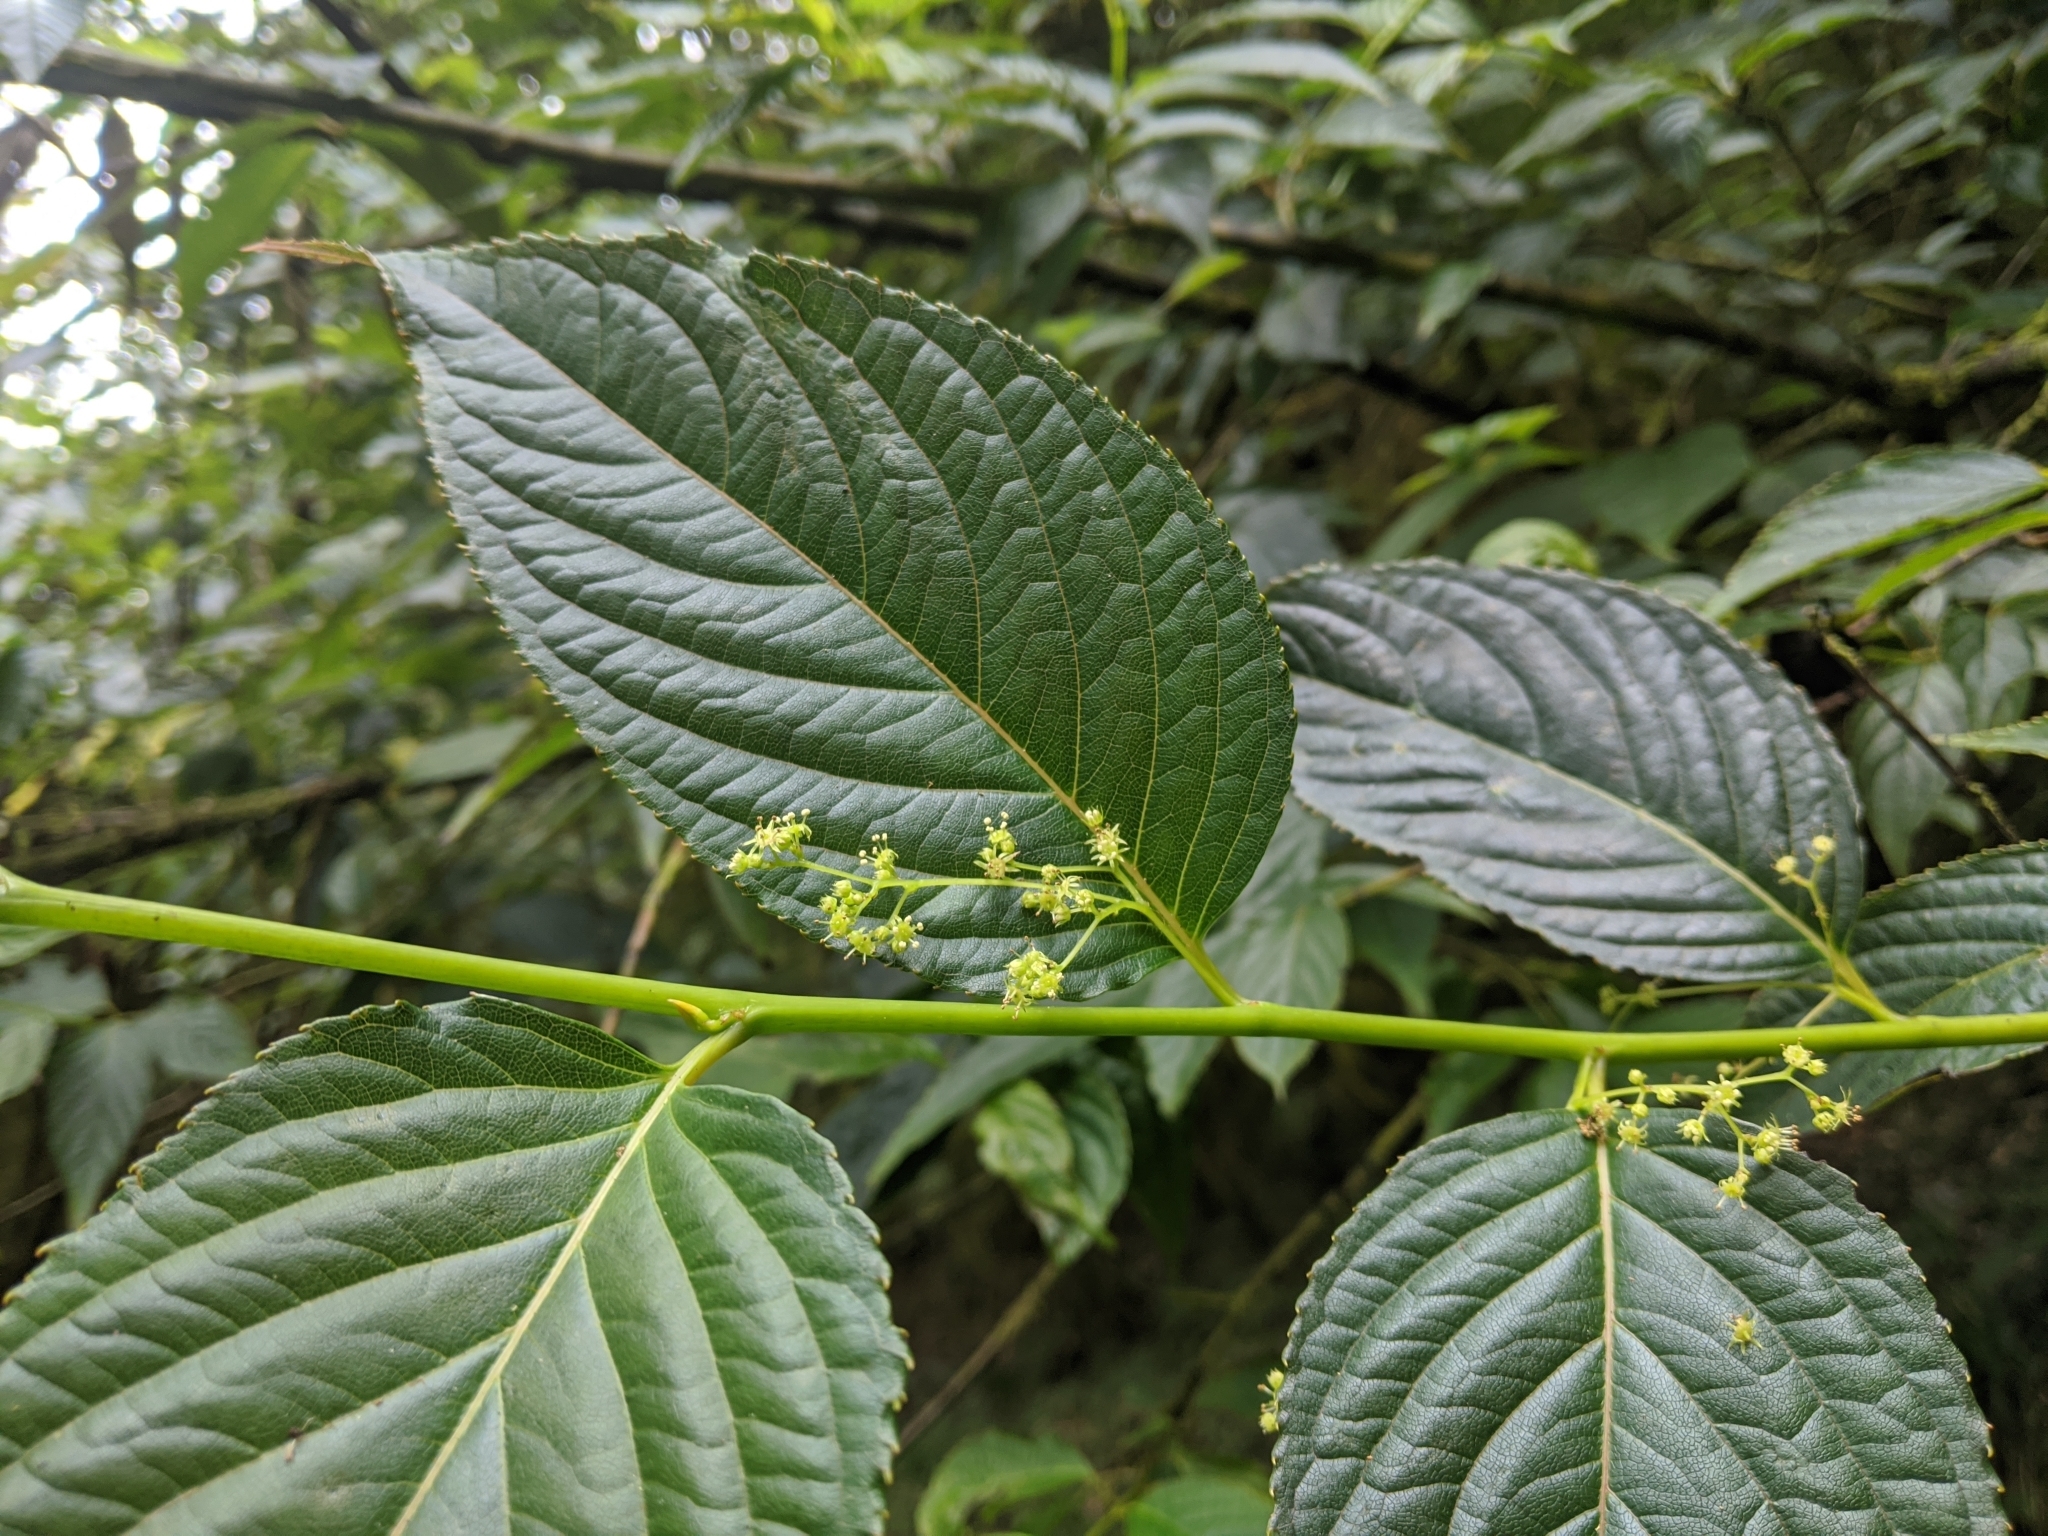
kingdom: Plantae
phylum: Tracheophyta
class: Magnoliopsida
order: Huerteales
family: Dipentodontaceae
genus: Perrottetia
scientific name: Perrottetia arisanensis
